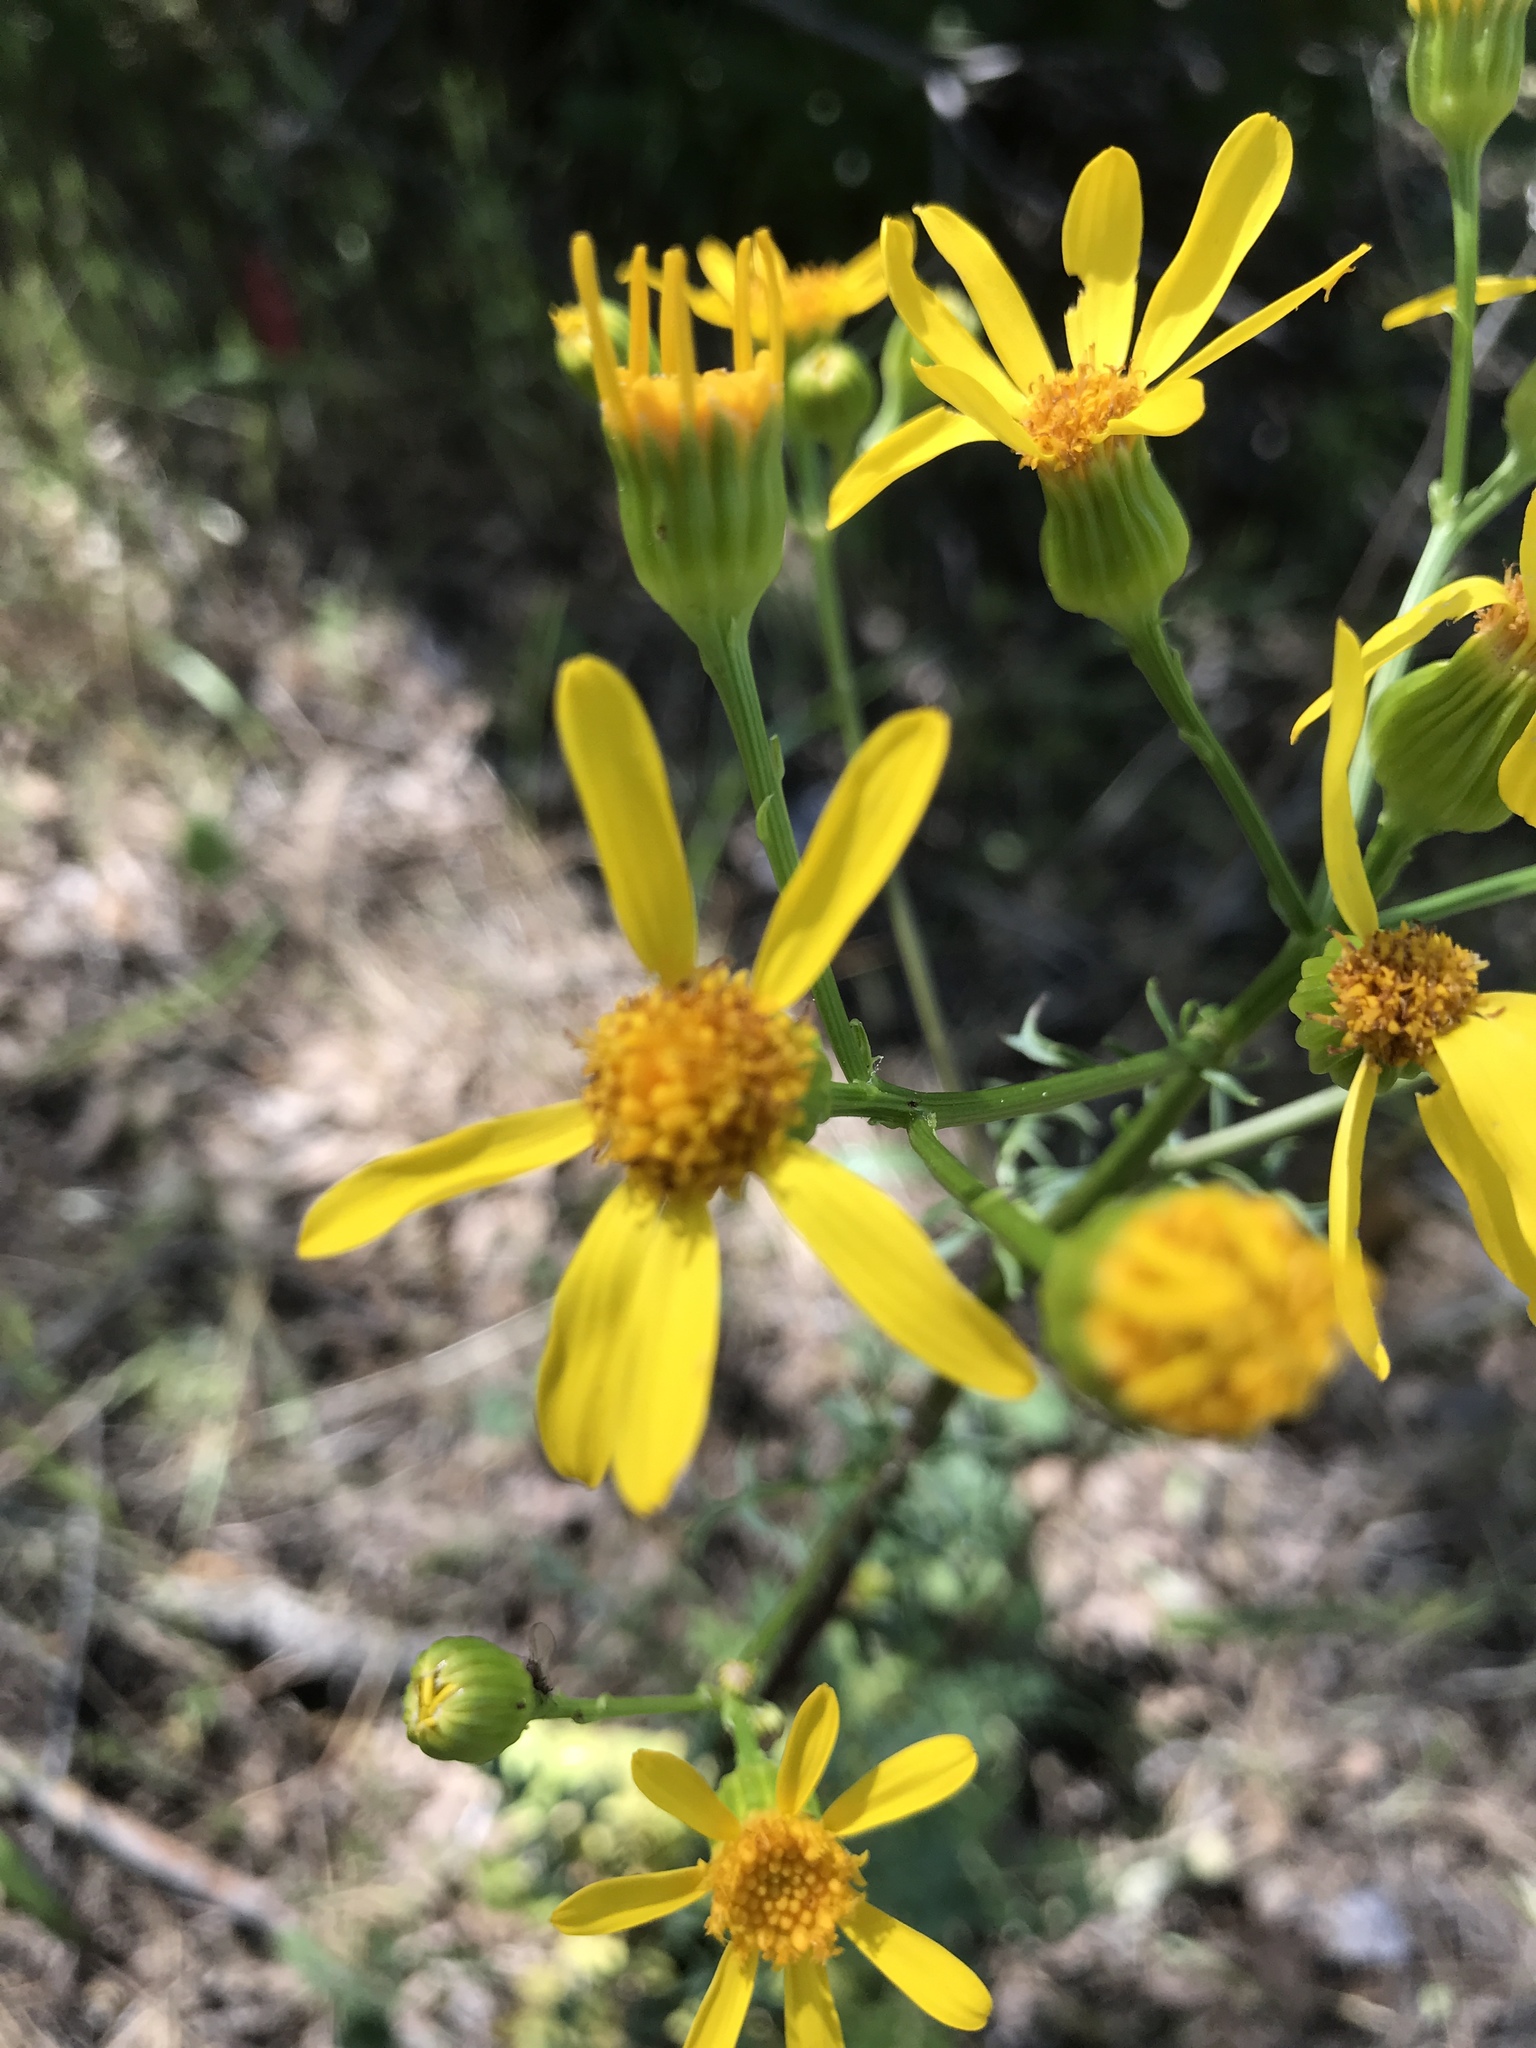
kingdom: Plantae
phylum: Tracheophyta
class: Magnoliopsida
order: Asterales
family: Asteraceae
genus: Packera
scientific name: Packera breweri
